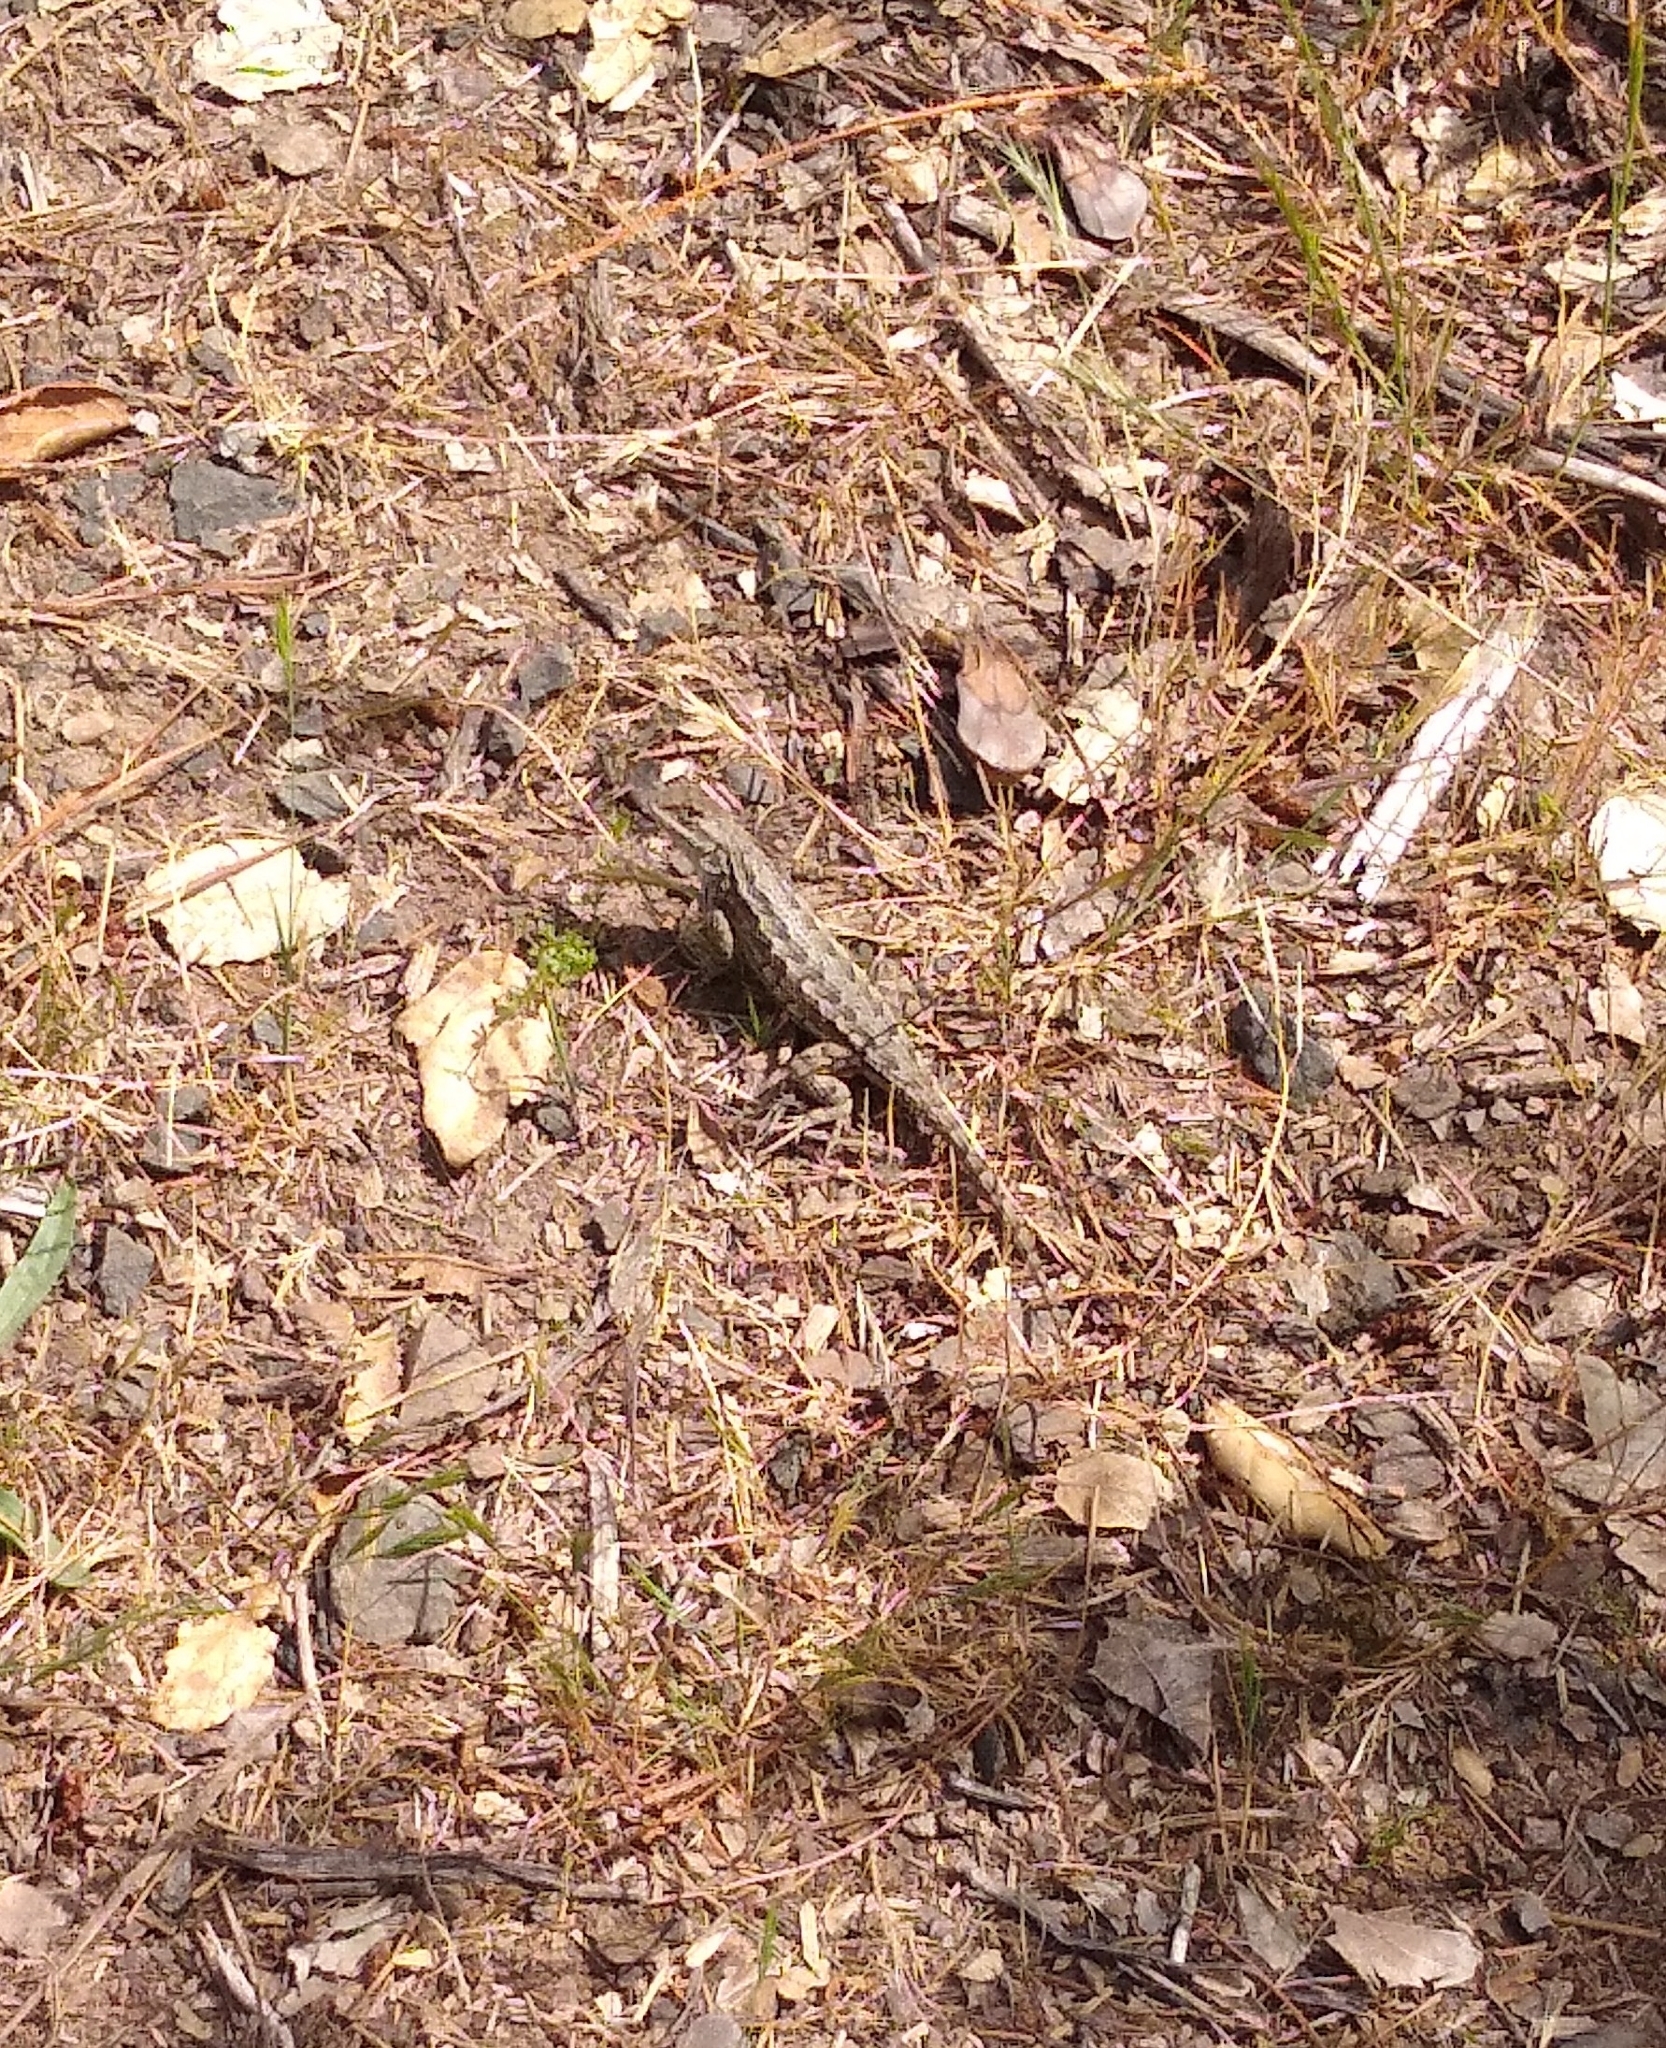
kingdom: Animalia
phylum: Chordata
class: Squamata
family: Phrynosomatidae
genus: Sceloporus
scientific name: Sceloporus occidentalis
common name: Western fence lizard
